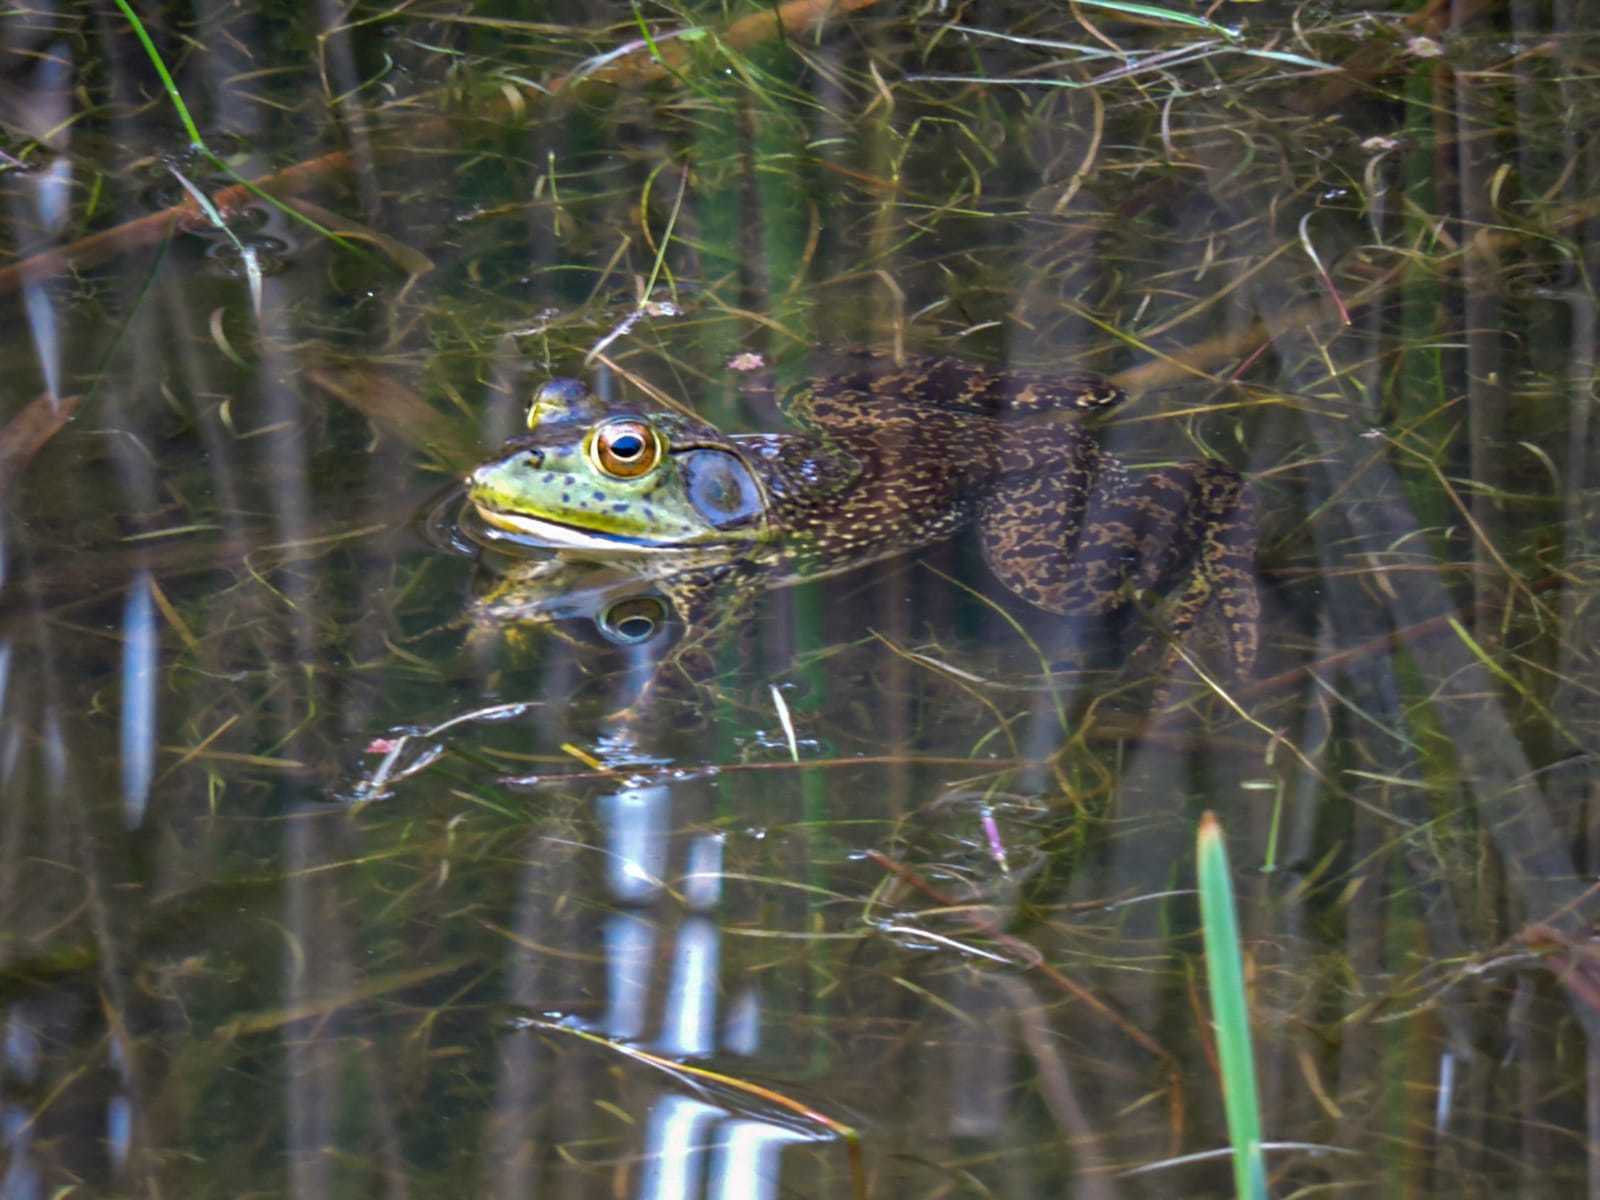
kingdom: Animalia
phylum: Chordata
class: Amphibia
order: Anura
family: Ranidae
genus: Lithobates
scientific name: Lithobates catesbeianus
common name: American bullfrog
